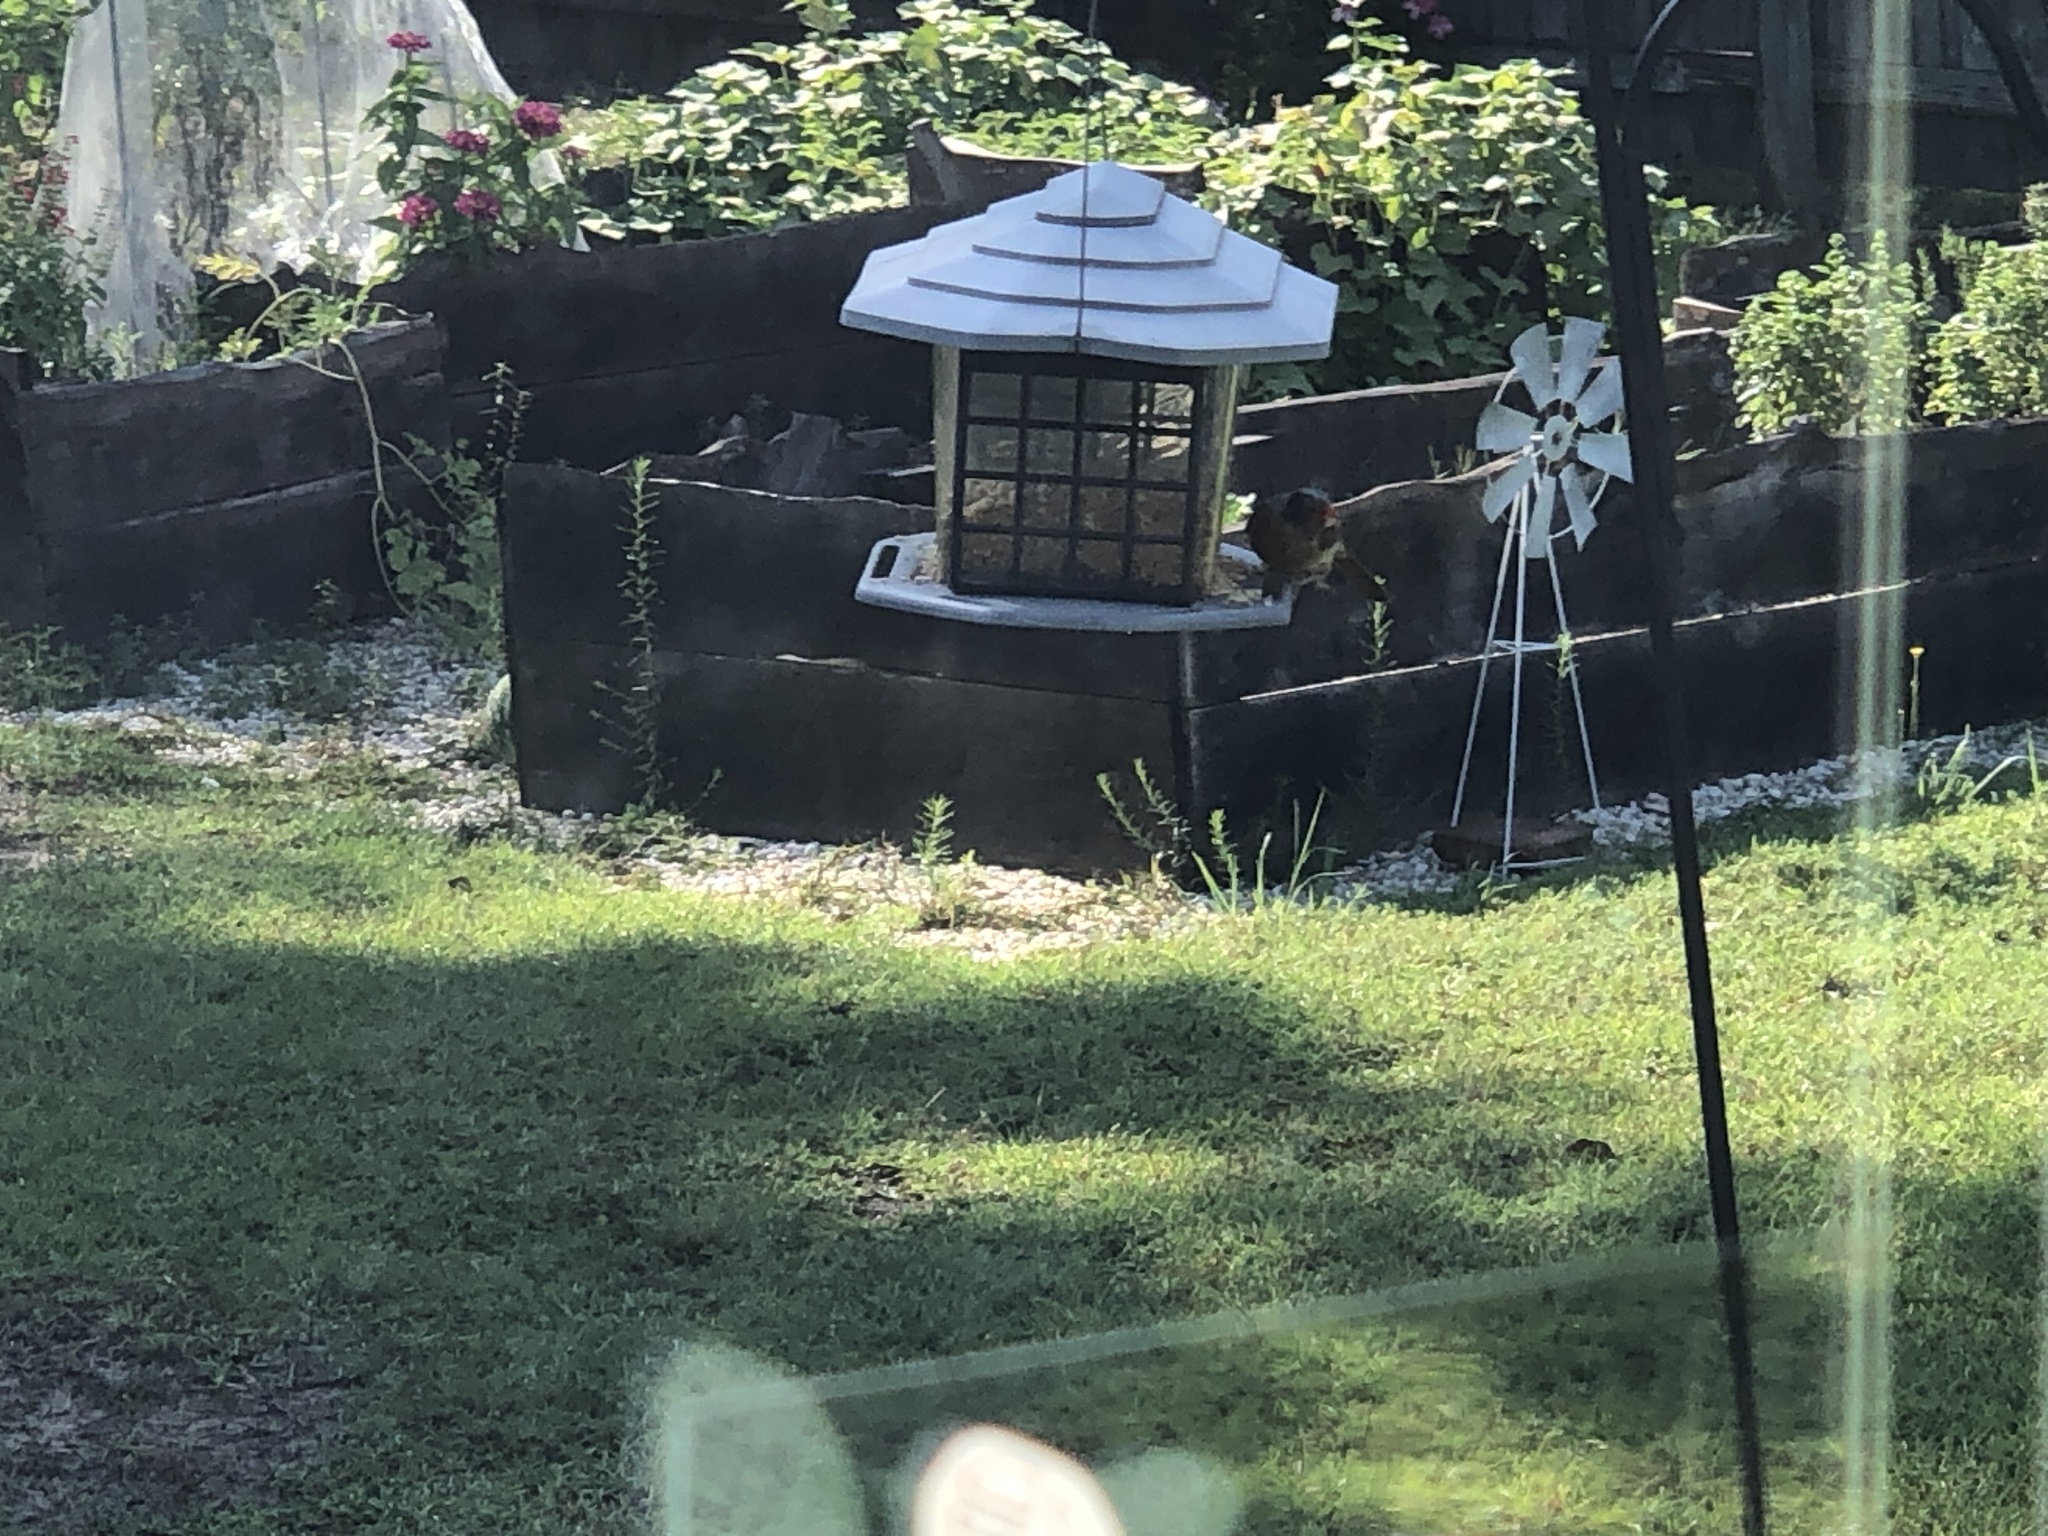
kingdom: Animalia
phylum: Chordata
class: Aves
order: Passeriformes
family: Cardinalidae
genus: Cardinalis
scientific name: Cardinalis cardinalis
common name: Northern cardinal
